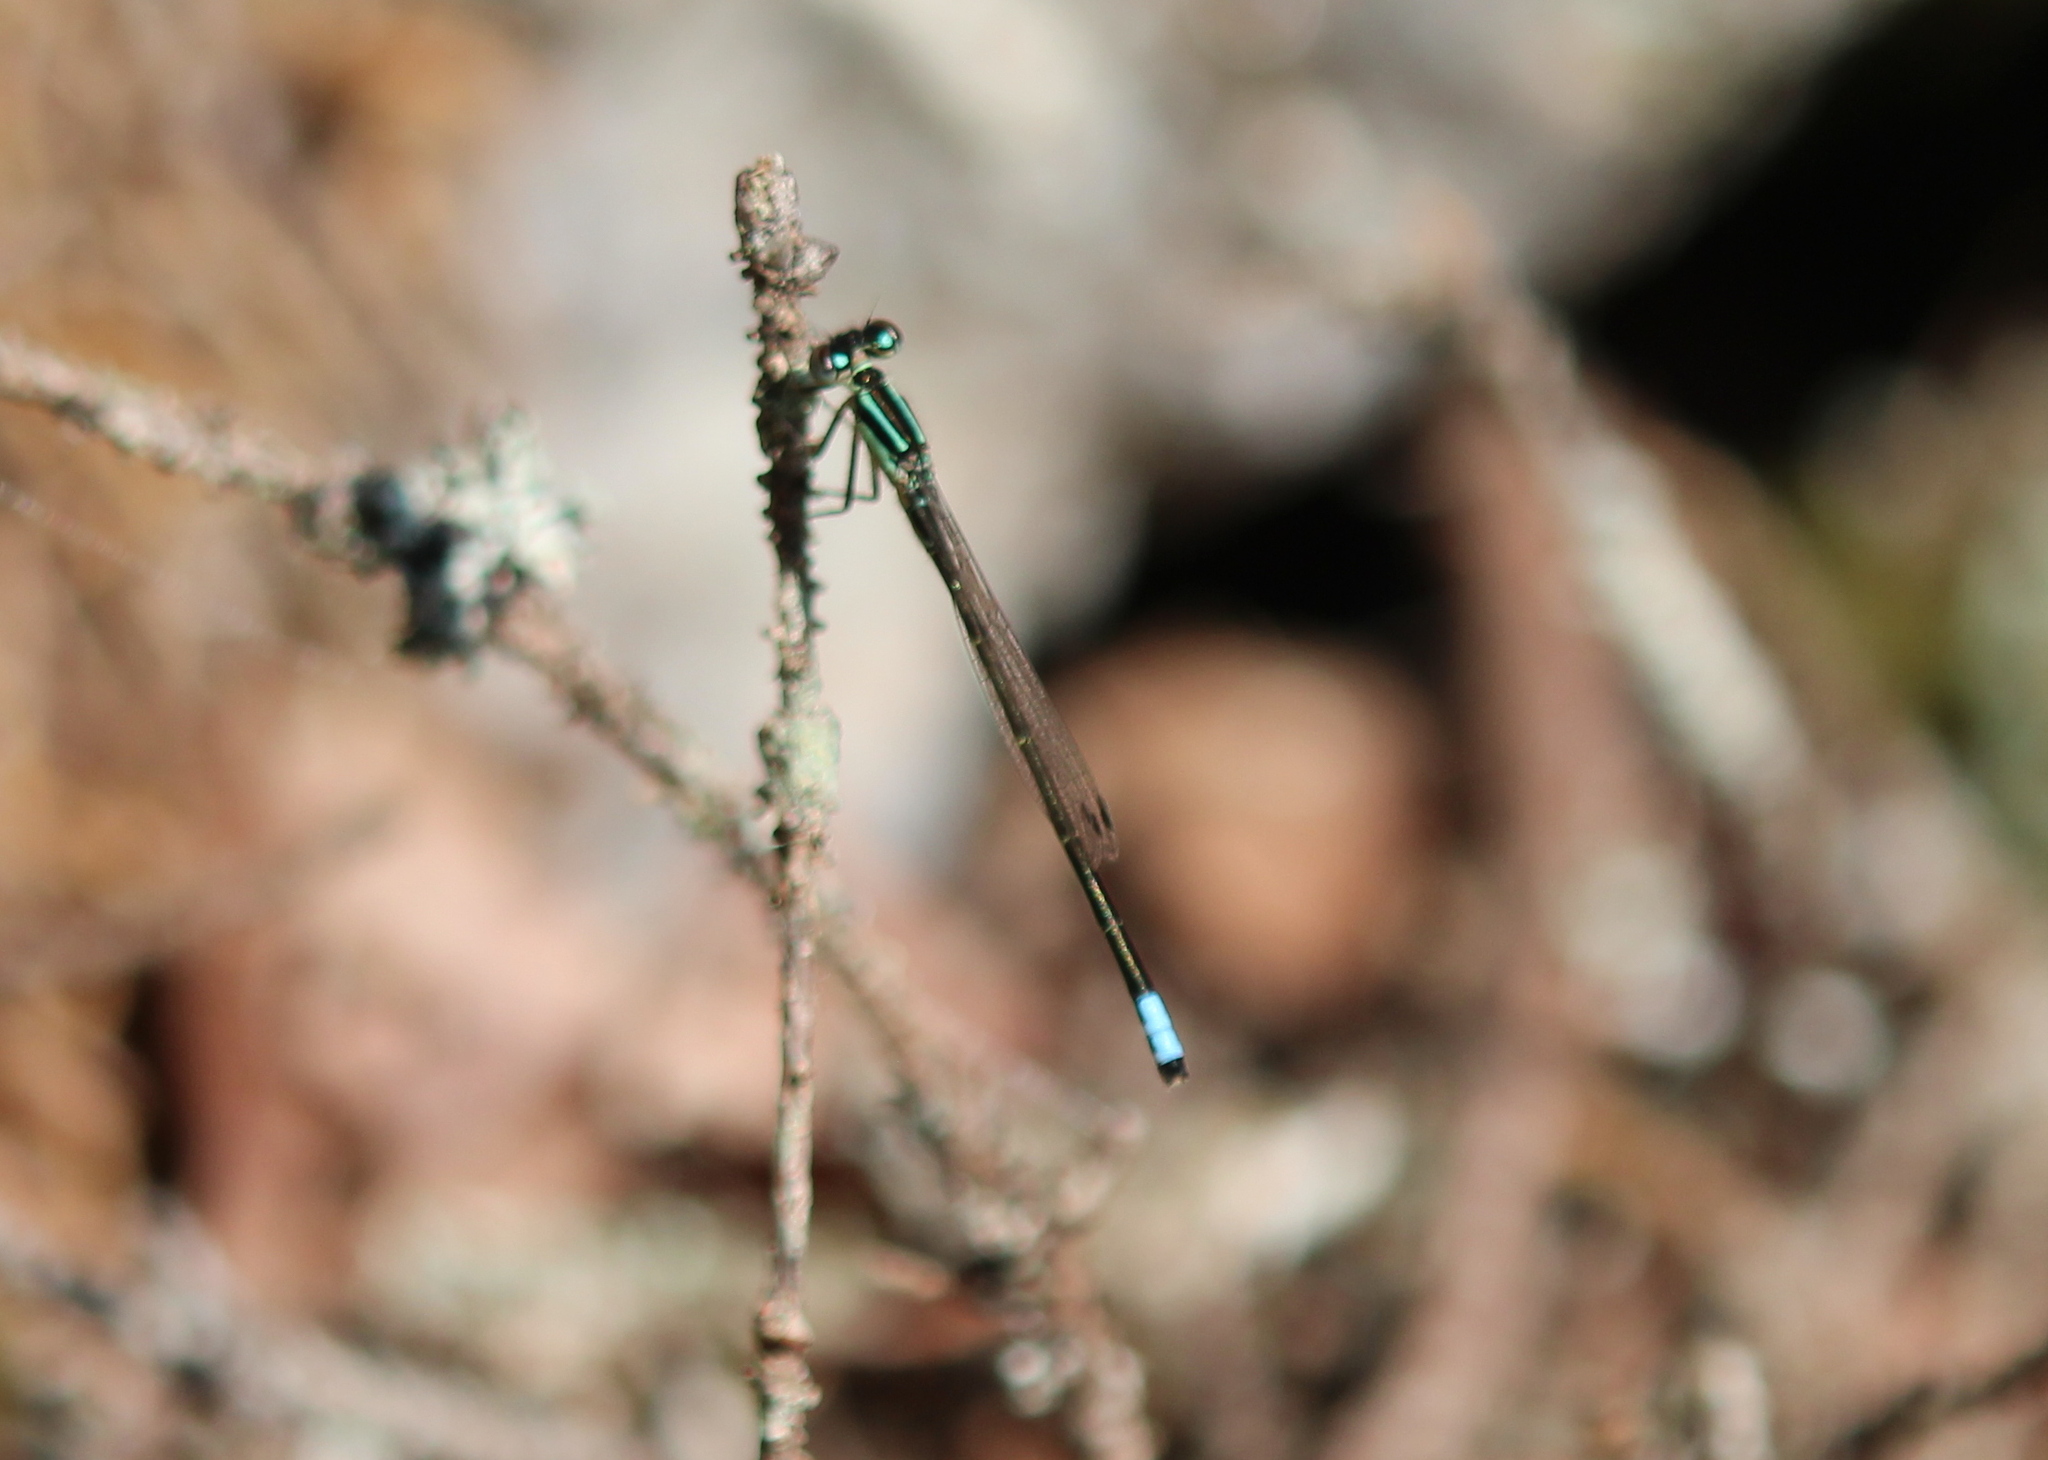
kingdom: Animalia
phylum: Arthropoda
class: Insecta
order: Odonata
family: Coenagrionidae
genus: Ischnura
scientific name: Ischnura verticalis
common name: Eastern forktail
